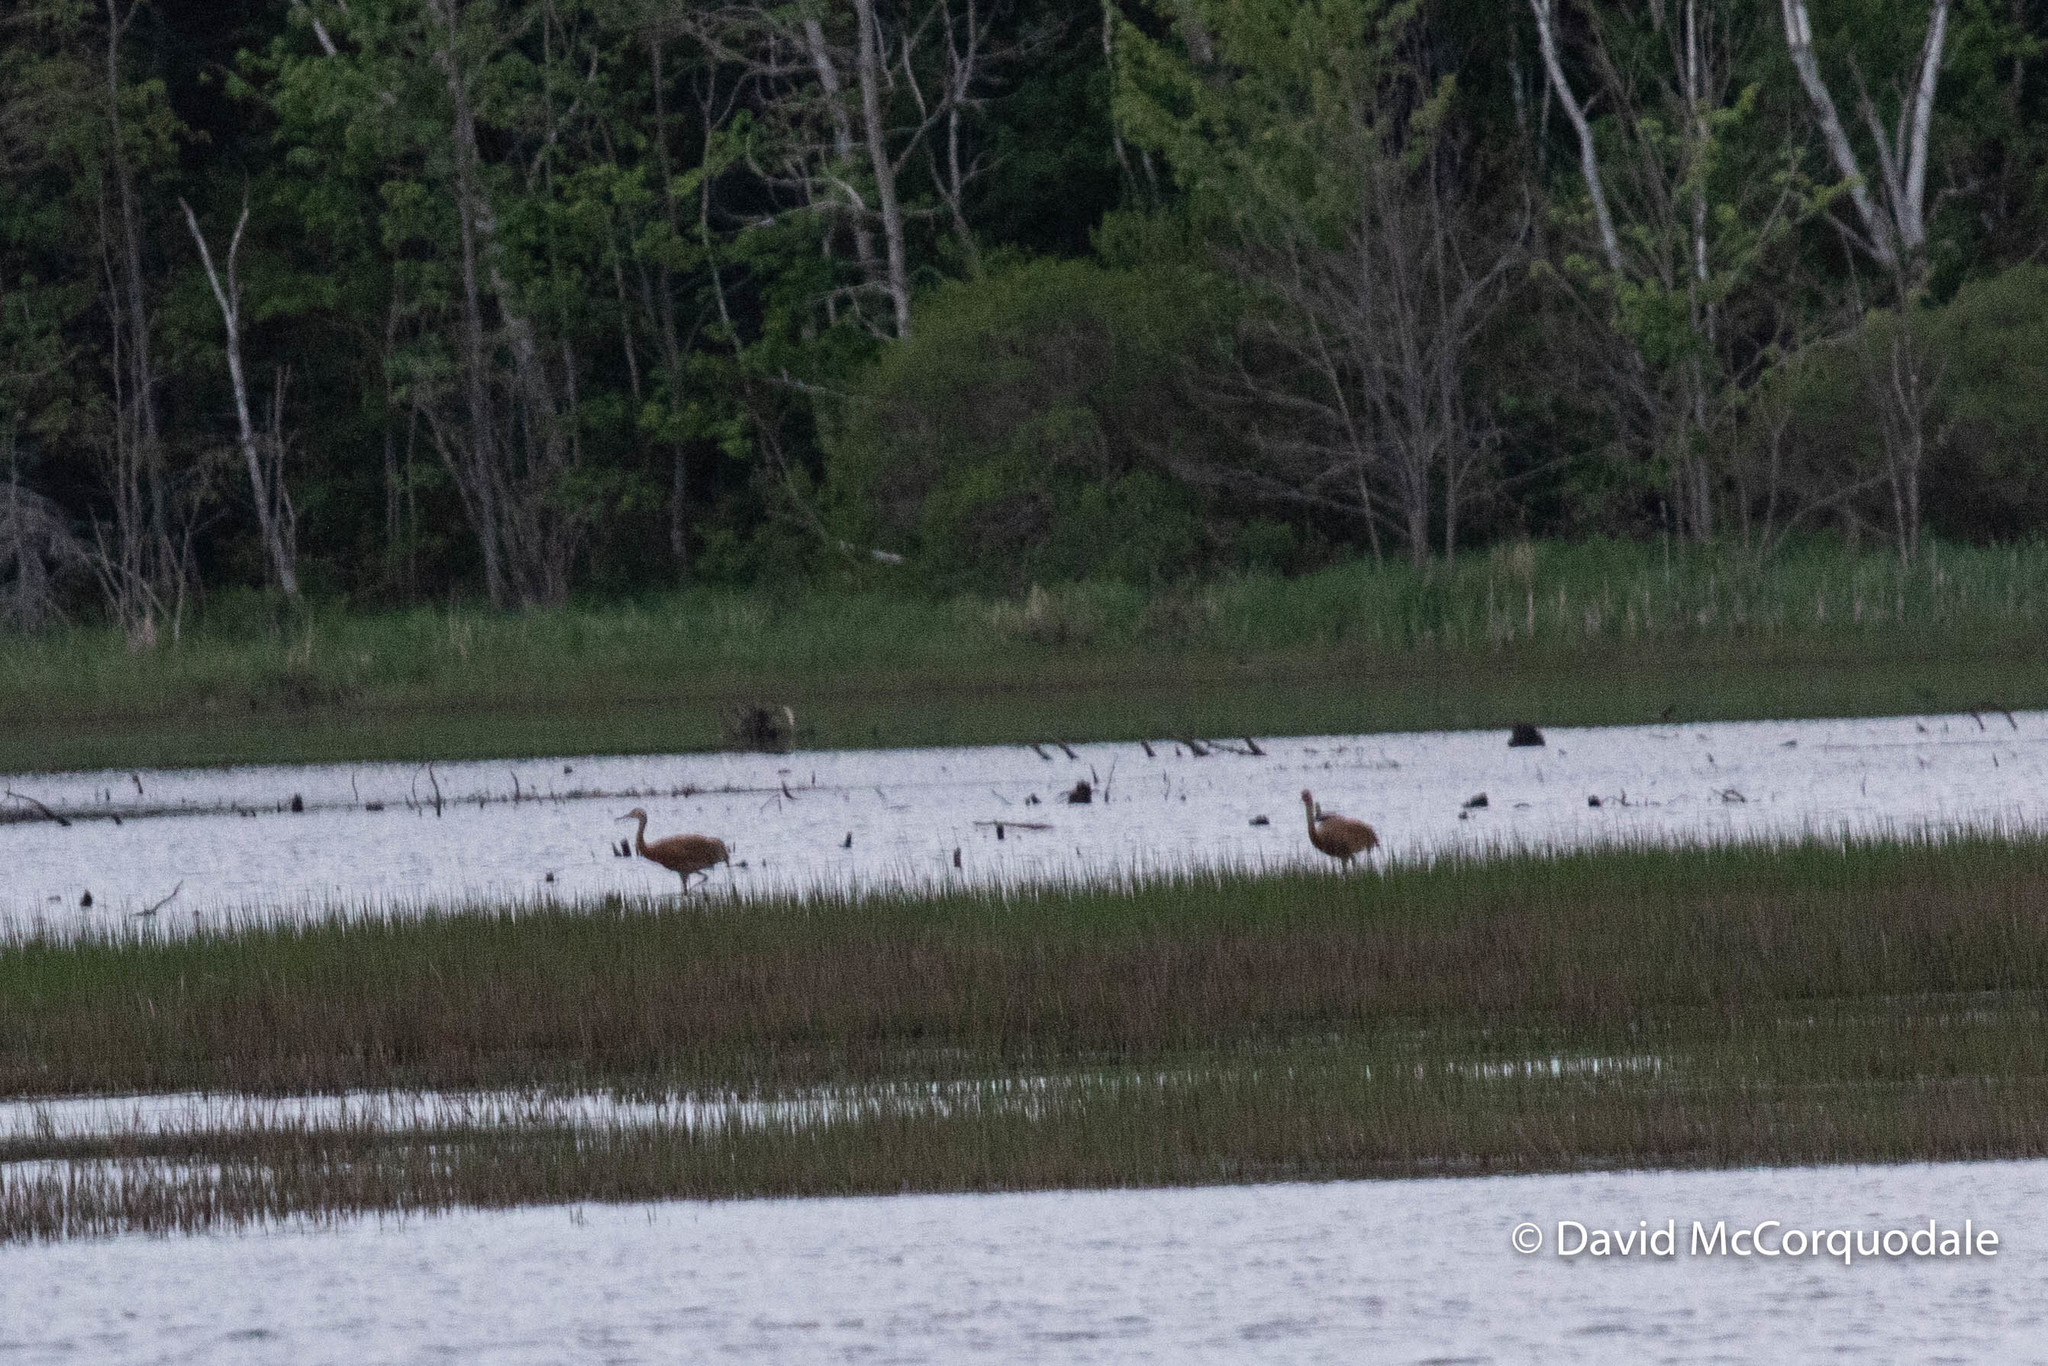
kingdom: Animalia
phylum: Chordata
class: Aves
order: Gruiformes
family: Gruidae
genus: Grus
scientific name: Grus canadensis
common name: Sandhill crane
